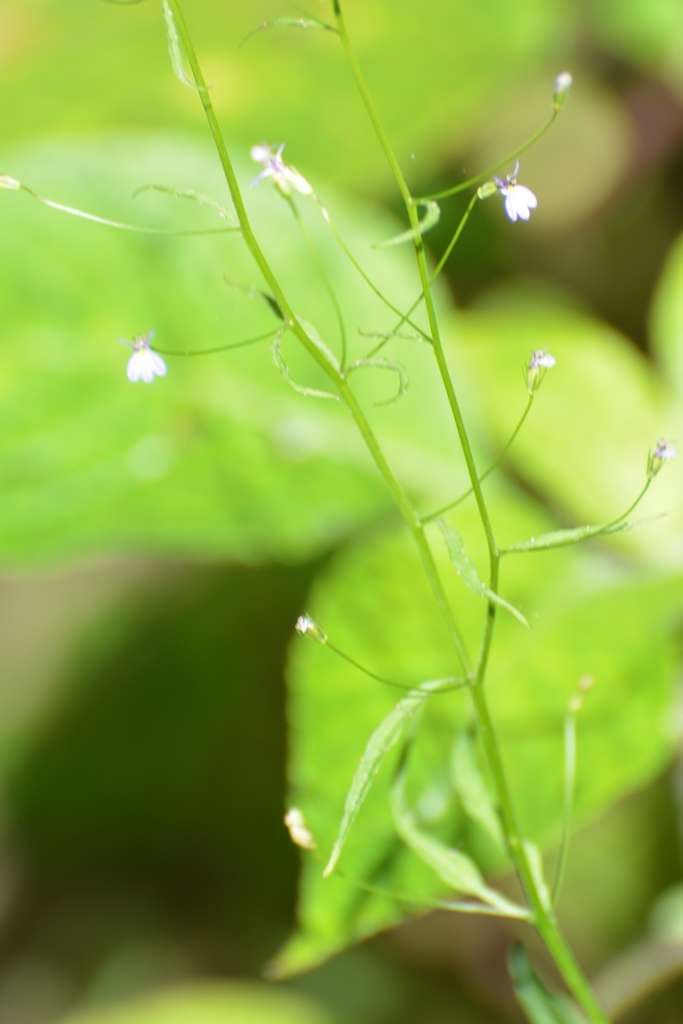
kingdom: Plantae
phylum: Tracheophyta
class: Magnoliopsida
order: Asterales
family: Campanulaceae
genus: Lobelia
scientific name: Lobelia caeciliae
